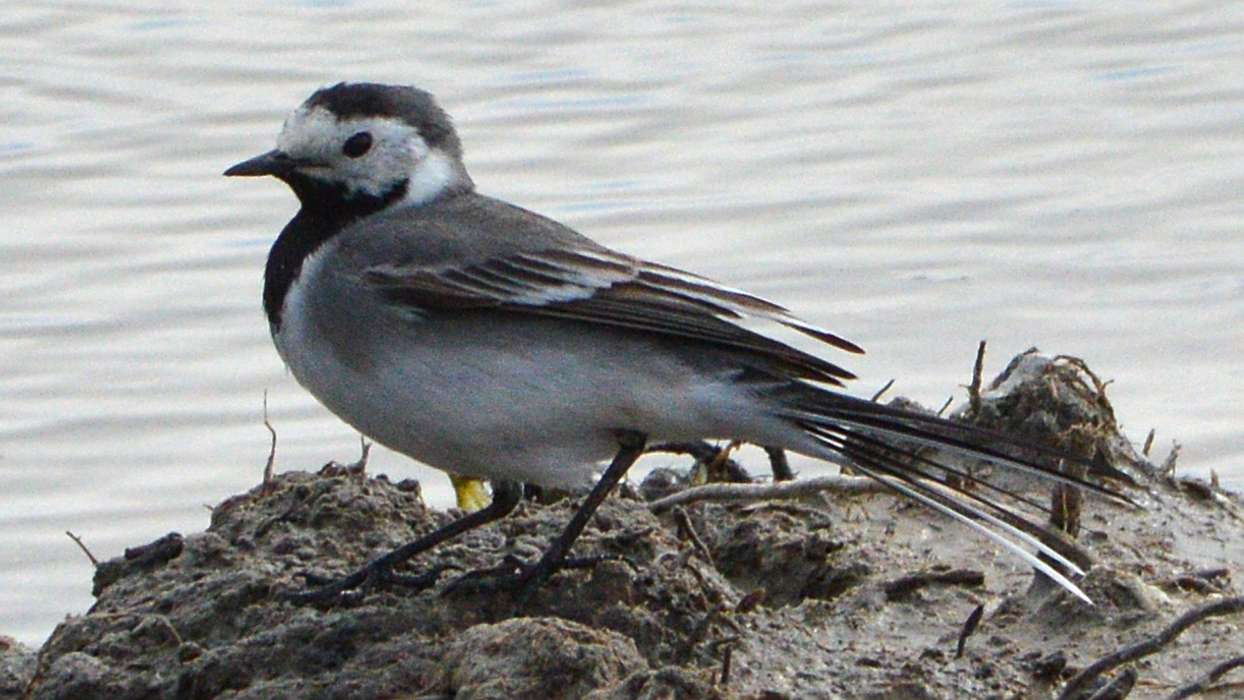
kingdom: Animalia
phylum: Chordata
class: Aves
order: Passeriformes
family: Motacillidae
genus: Motacilla
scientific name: Motacilla alba
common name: White wagtail
